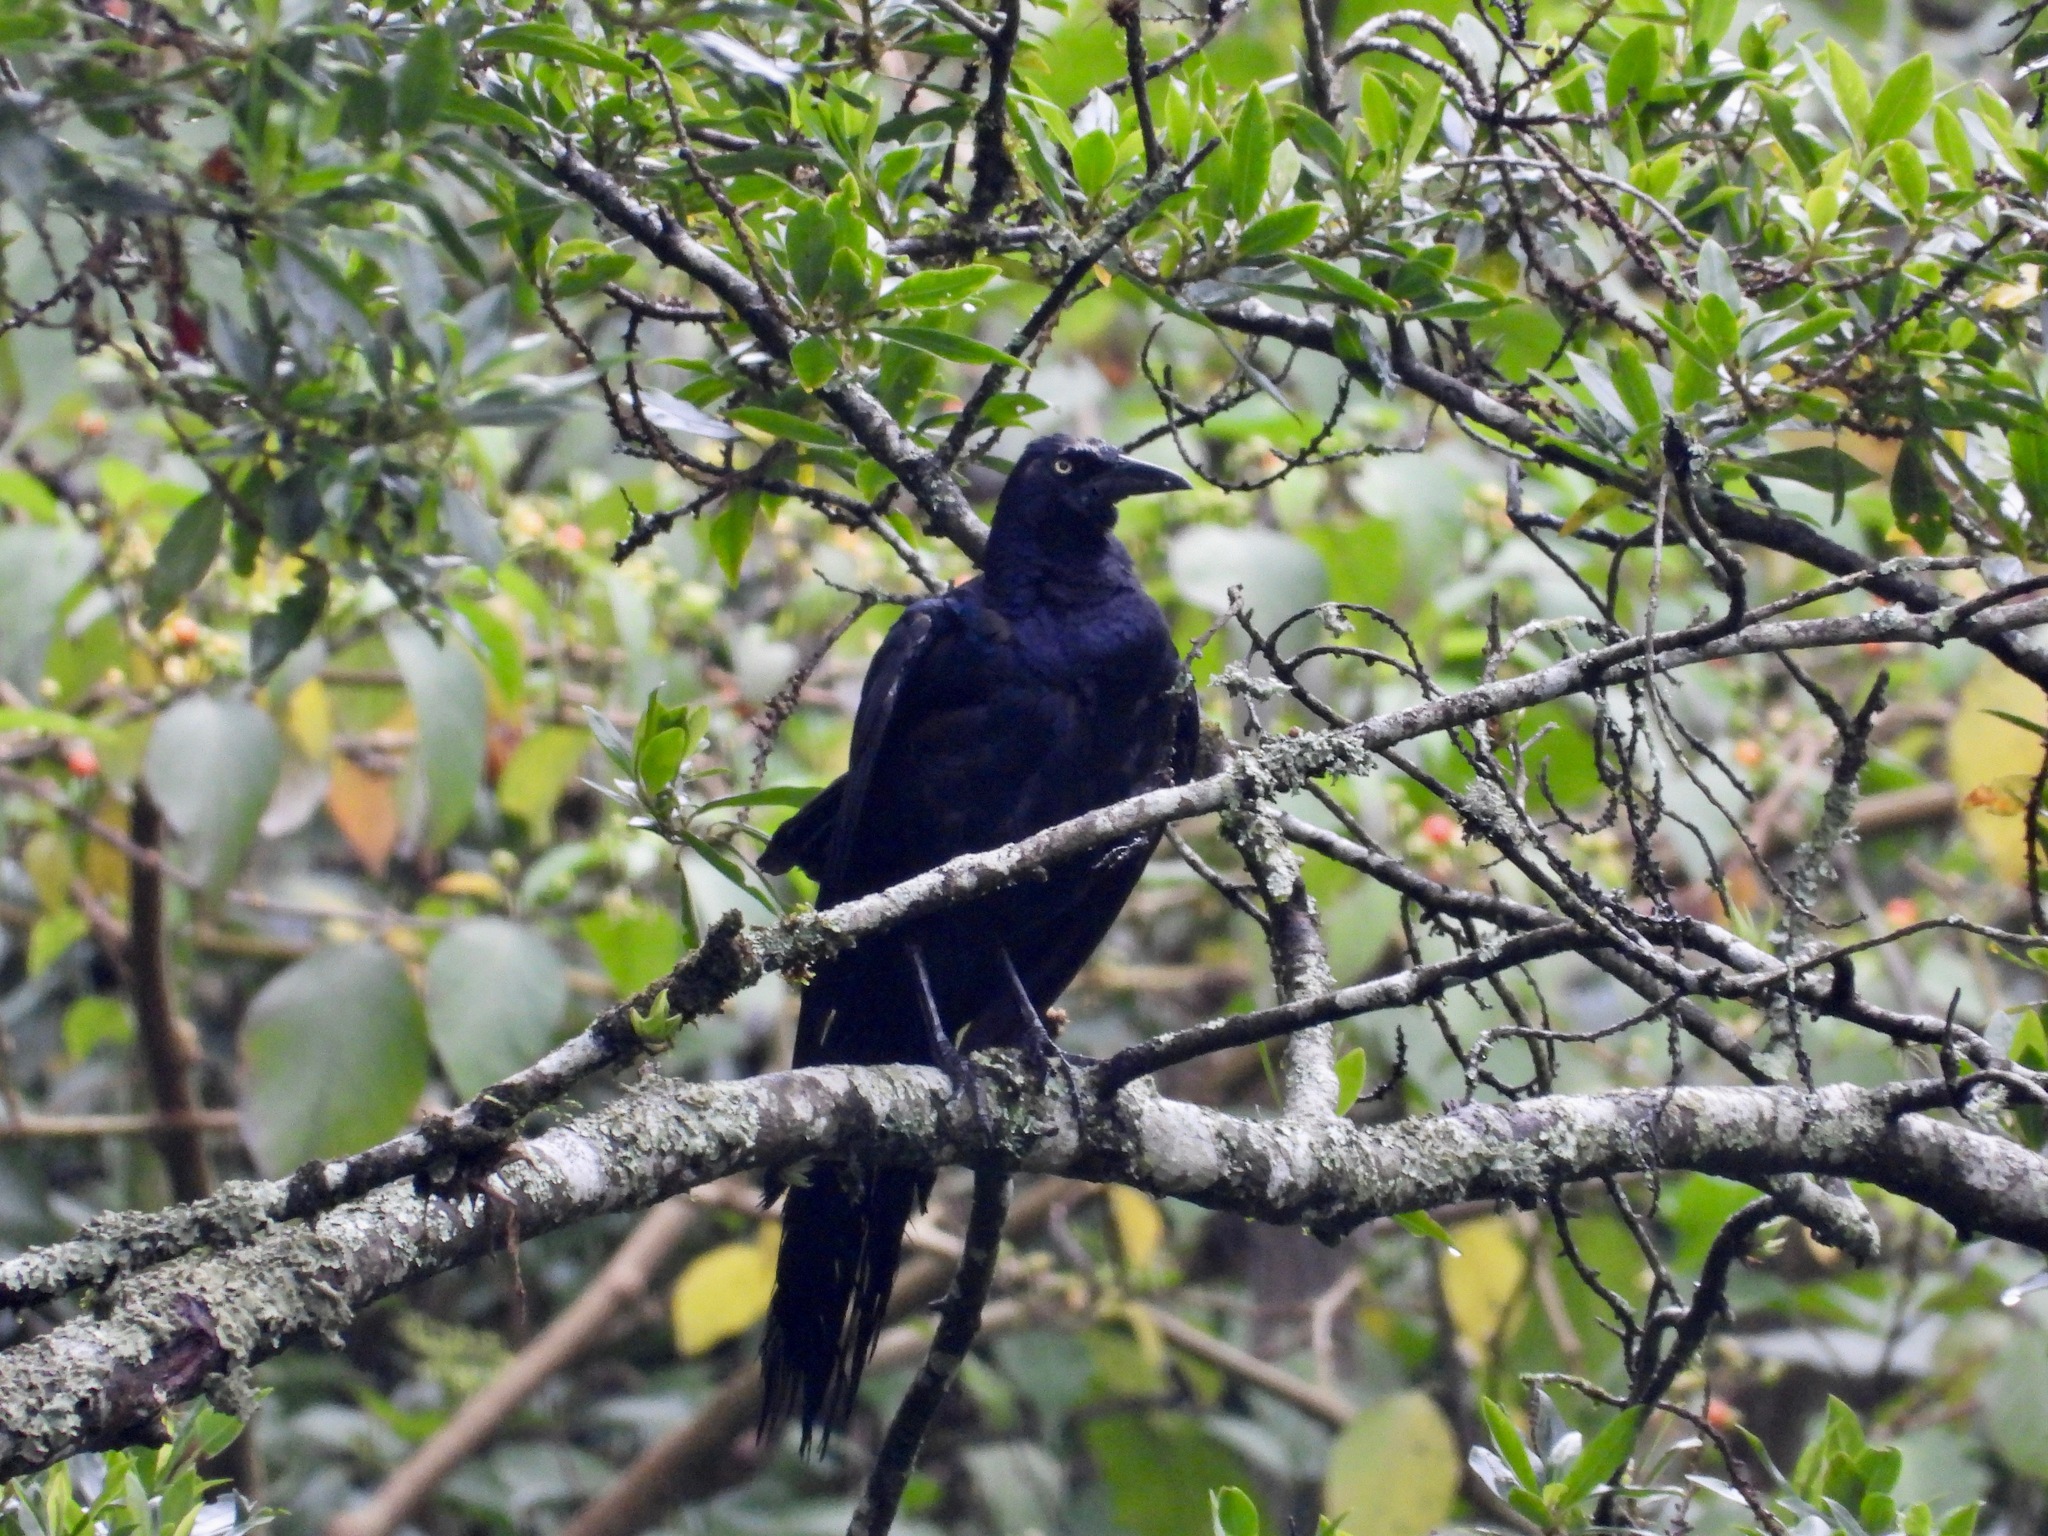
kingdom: Animalia
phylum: Chordata
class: Aves
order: Passeriformes
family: Icteridae
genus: Quiscalus
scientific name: Quiscalus mexicanus
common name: Great-tailed grackle
